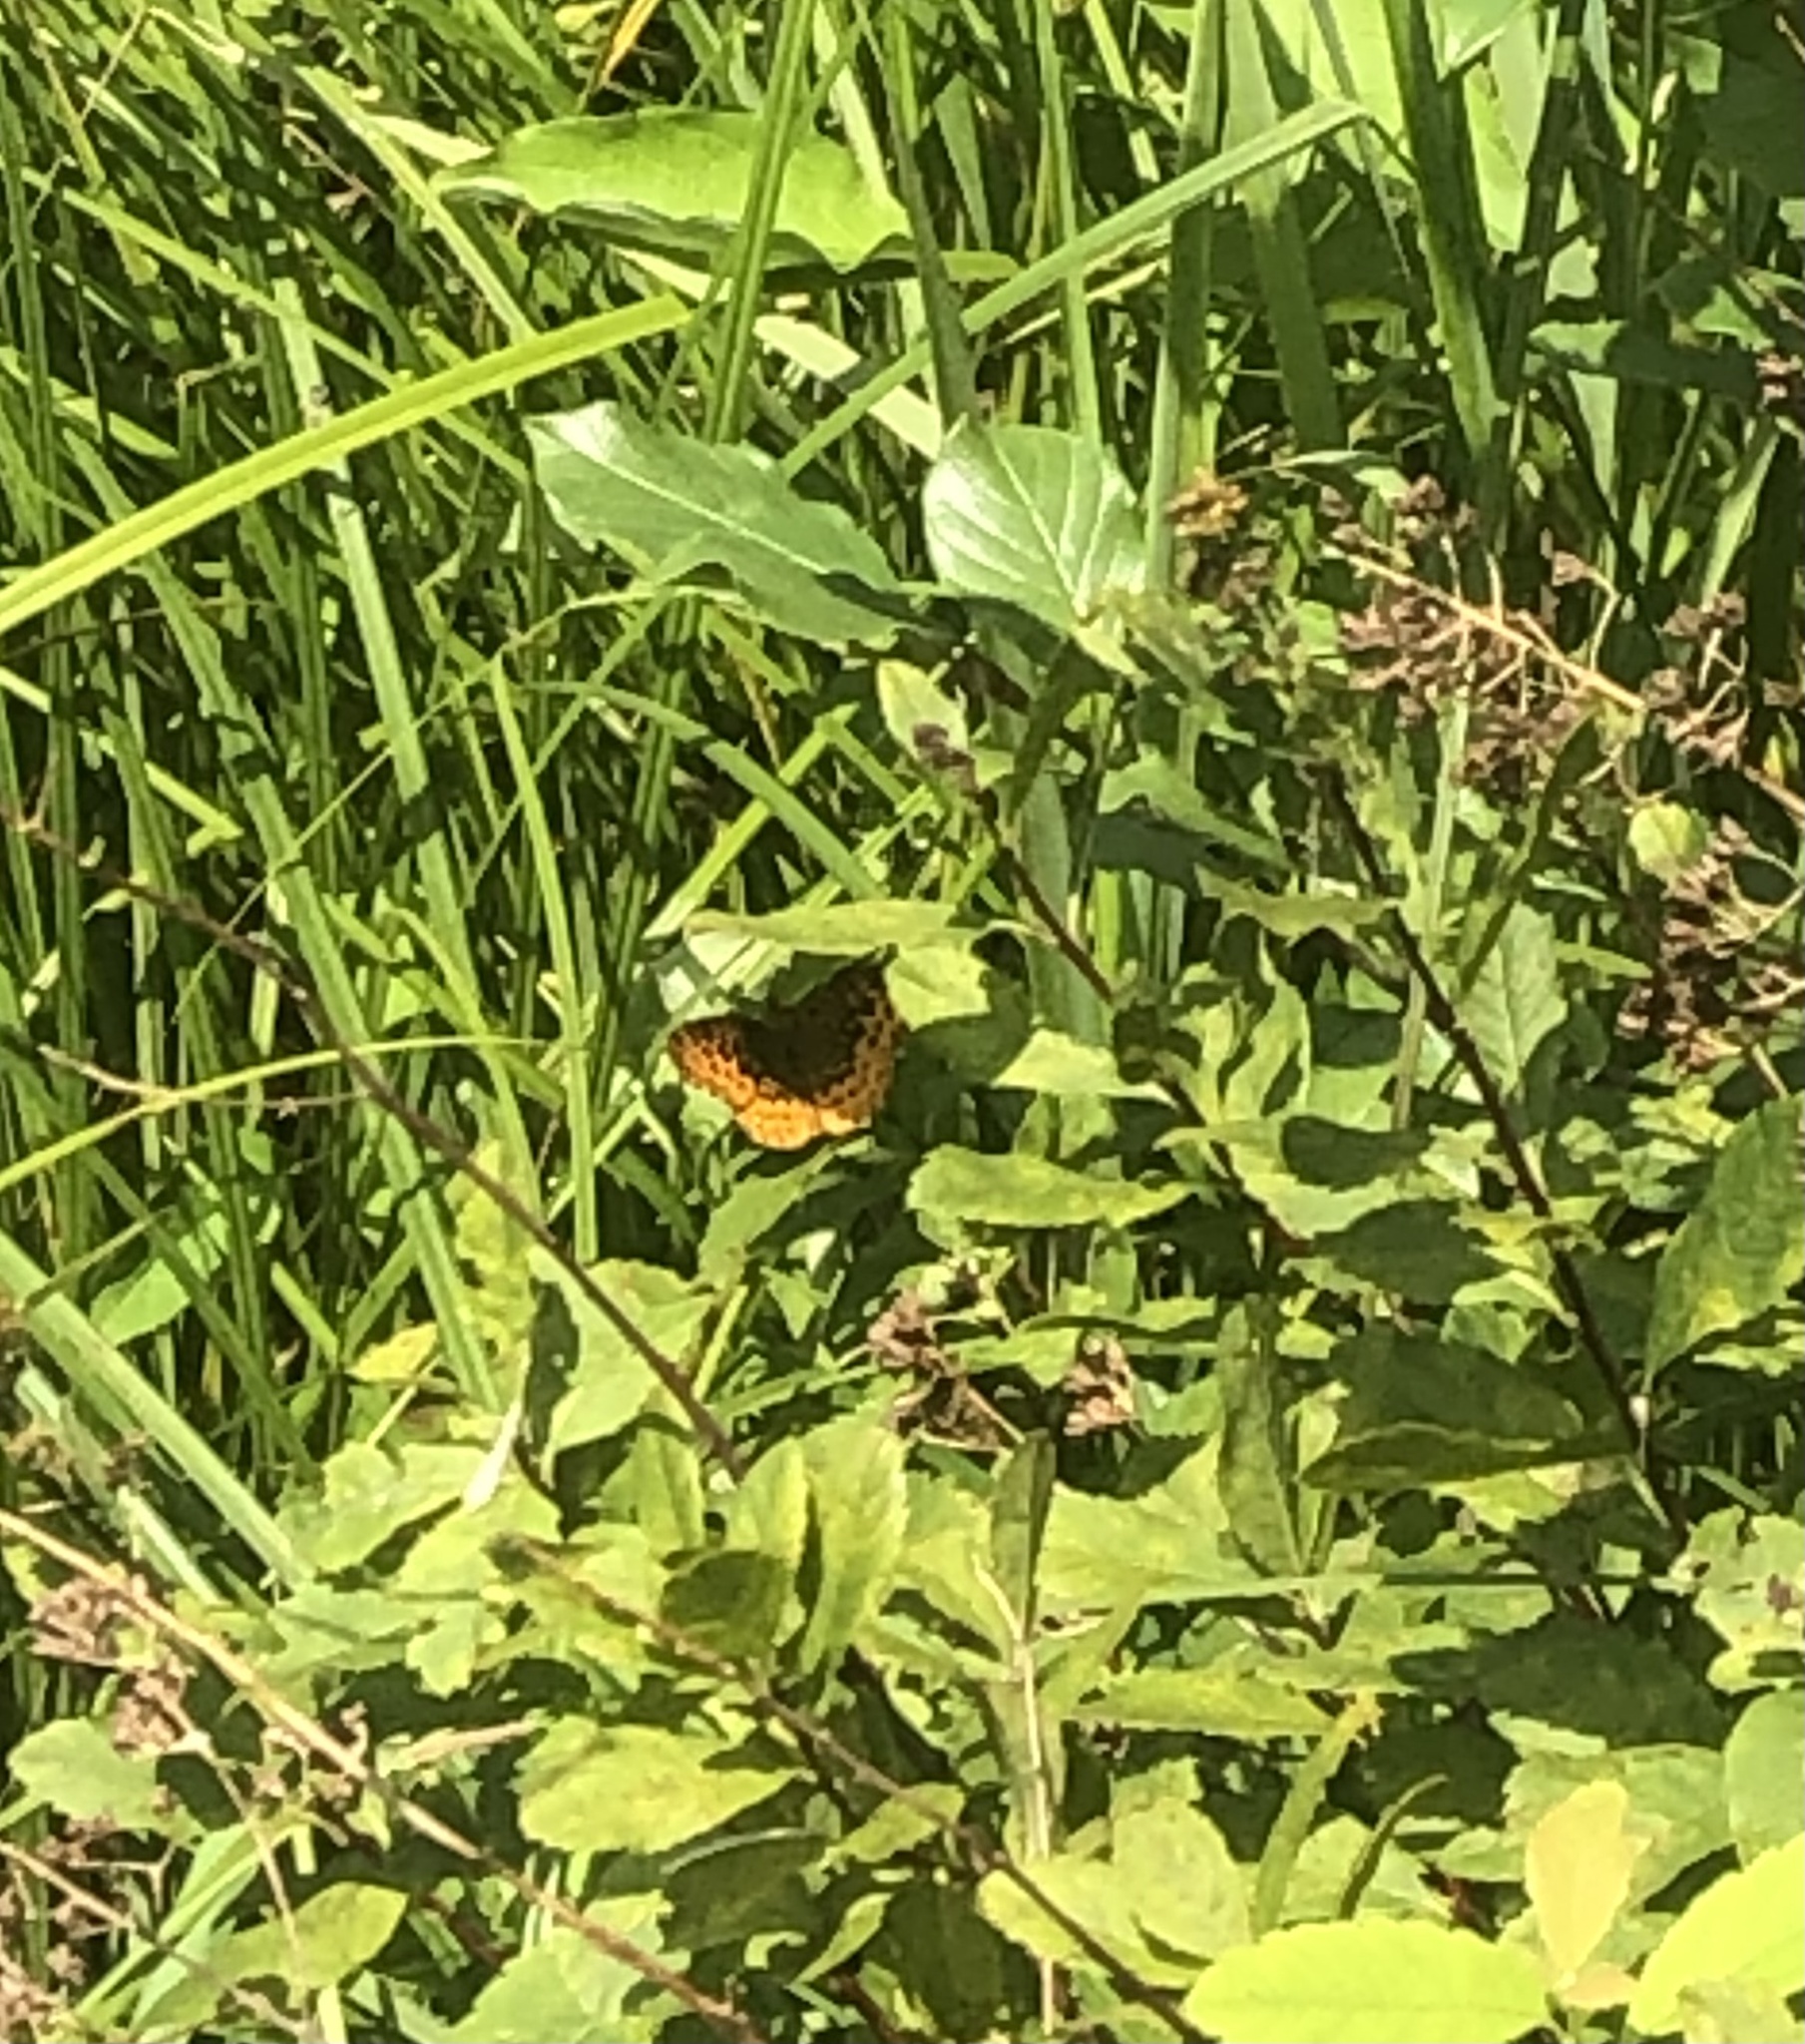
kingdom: Animalia
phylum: Arthropoda
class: Insecta
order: Lepidoptera
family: Nymphalidae
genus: Clossiana
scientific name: Clossiana toddi
